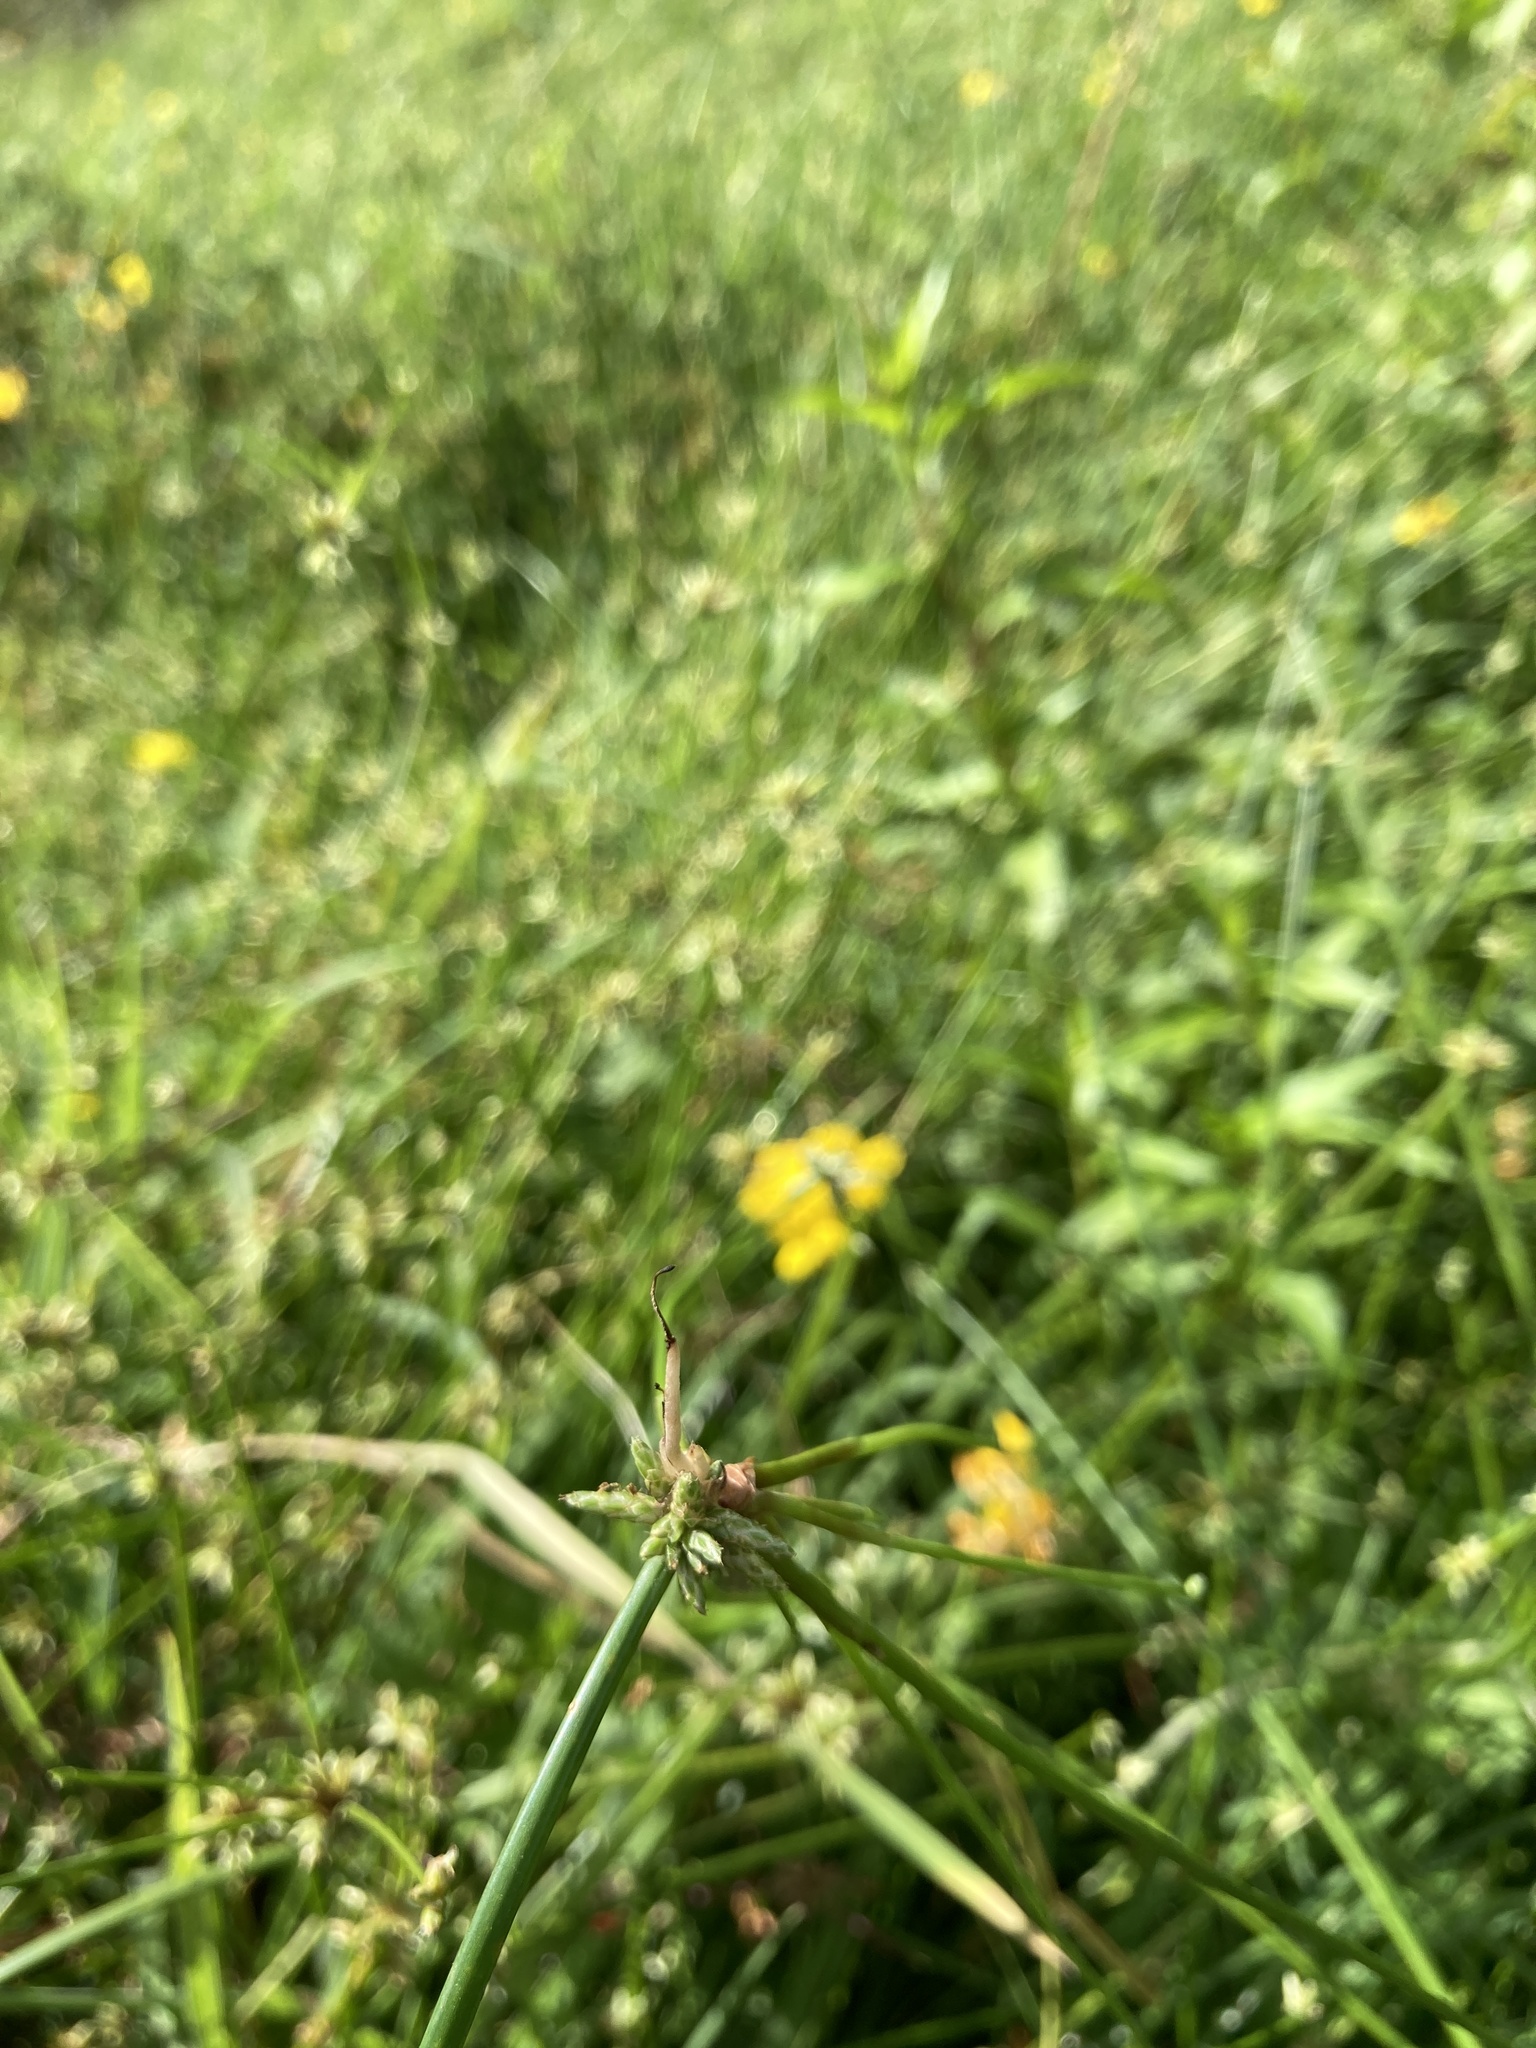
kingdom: Plantae
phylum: Tracheophyta
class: Liliopsida
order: Poales
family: Cyperaceae
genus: Isolepis
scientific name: Isolepis prolifera
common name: Proliferating bulrush
